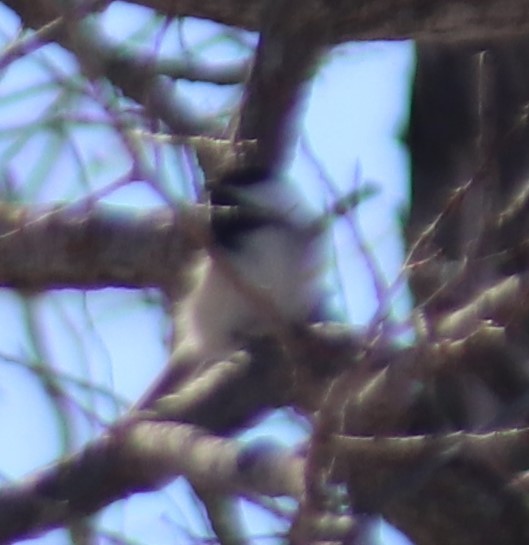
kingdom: Animalia
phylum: Chordata
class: Aves
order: Passeriformes
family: Paridae
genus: Poecile
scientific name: Poecile atricapillus
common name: Black-capped chickadee
